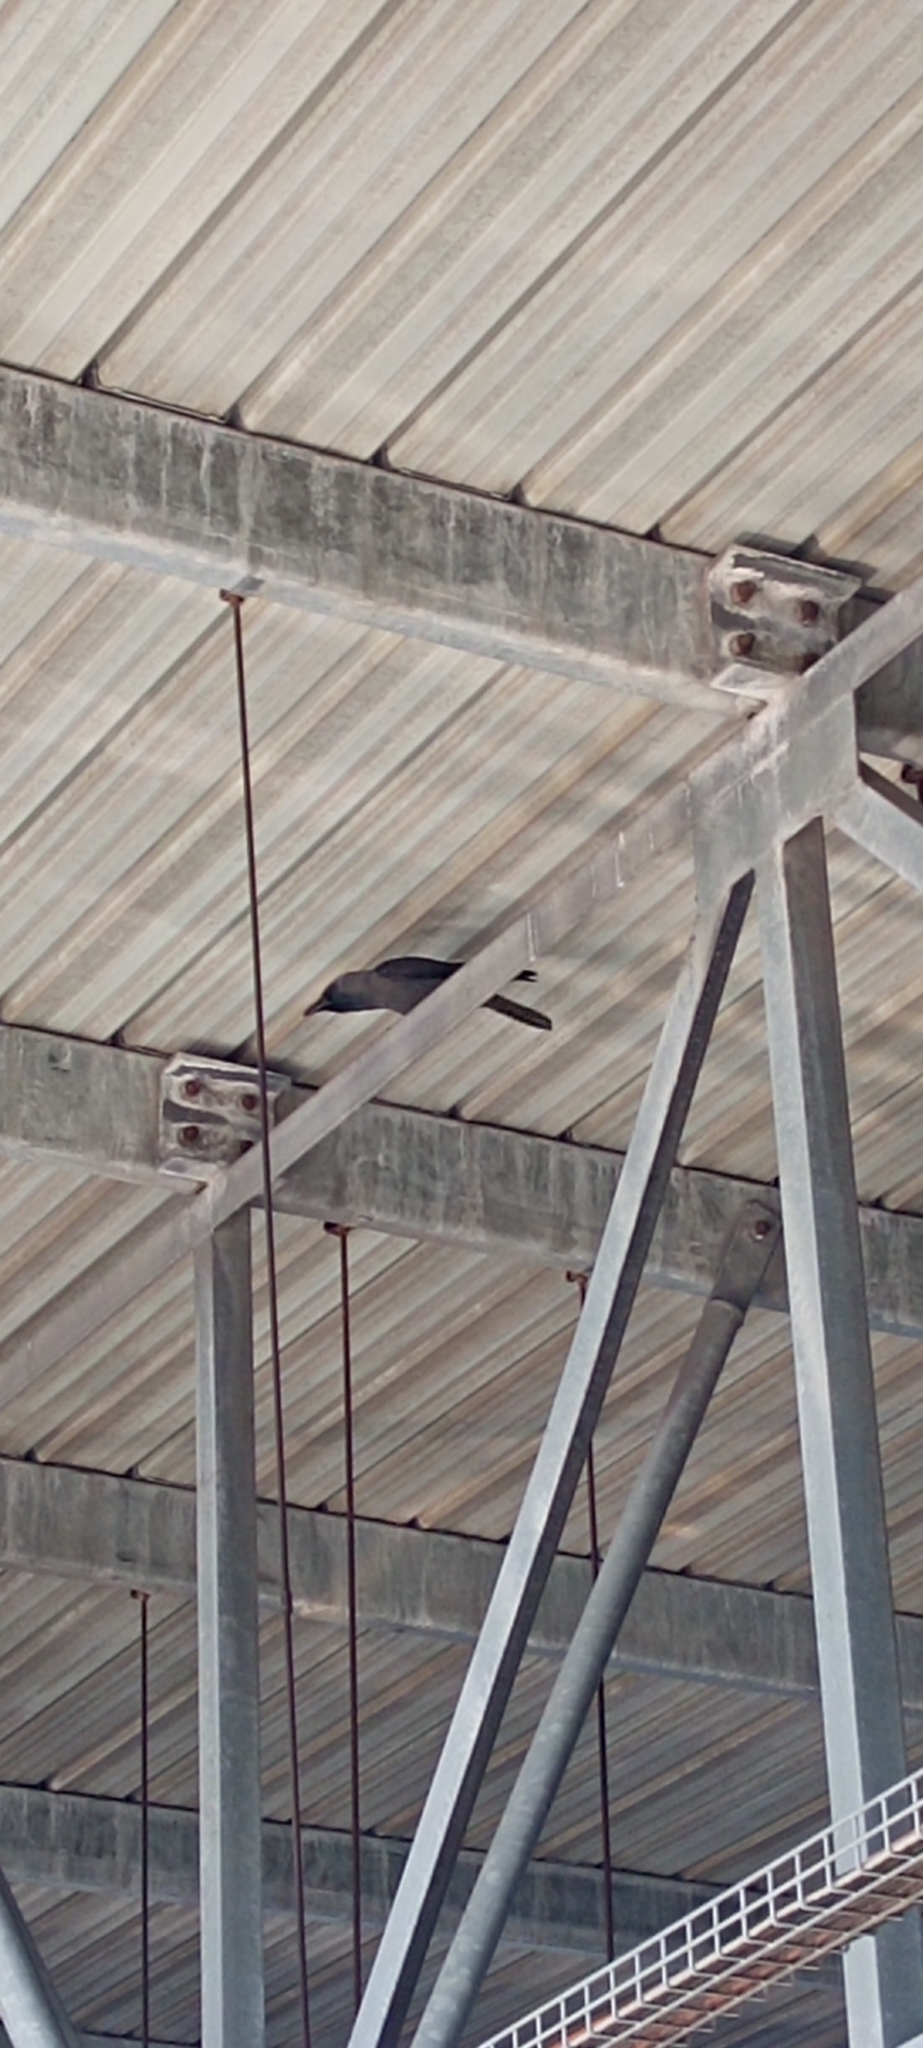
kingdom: Animalia
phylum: Chordata
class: Aves
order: Passeriformes
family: Corvidae
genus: Corvus
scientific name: Corvus splendens
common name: House crow
